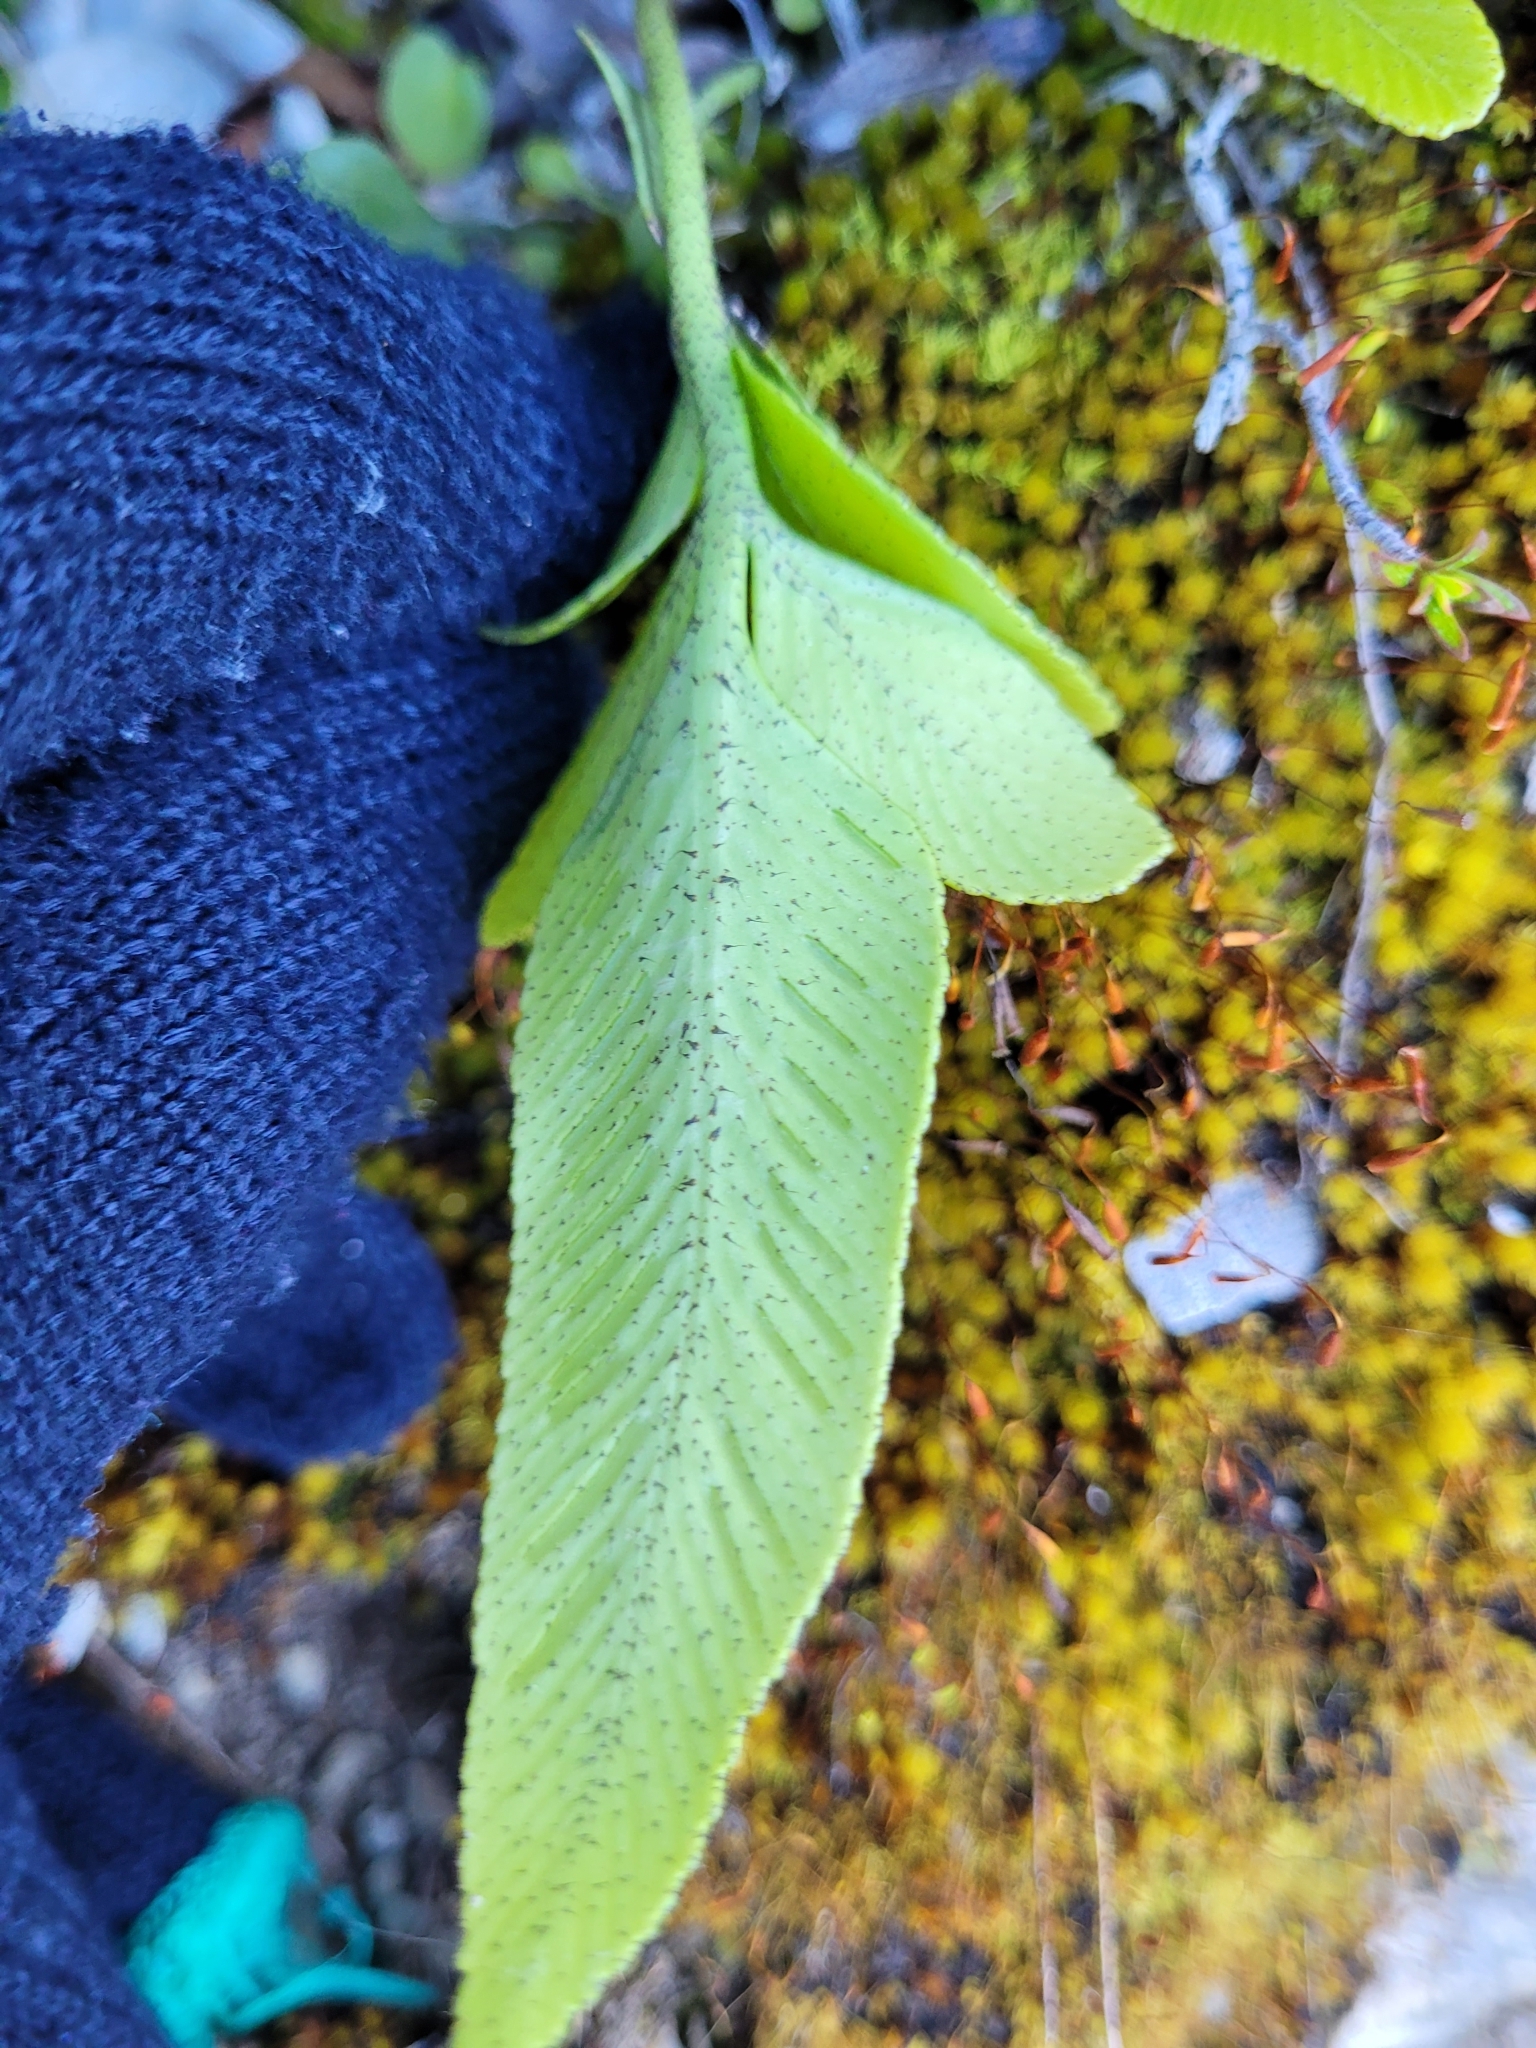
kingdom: Plantae
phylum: Tracheophyta
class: Polypodiopsida
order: Polypodiales
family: Aspleniaceae
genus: Asplenium
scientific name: Asplenium lepidotum
